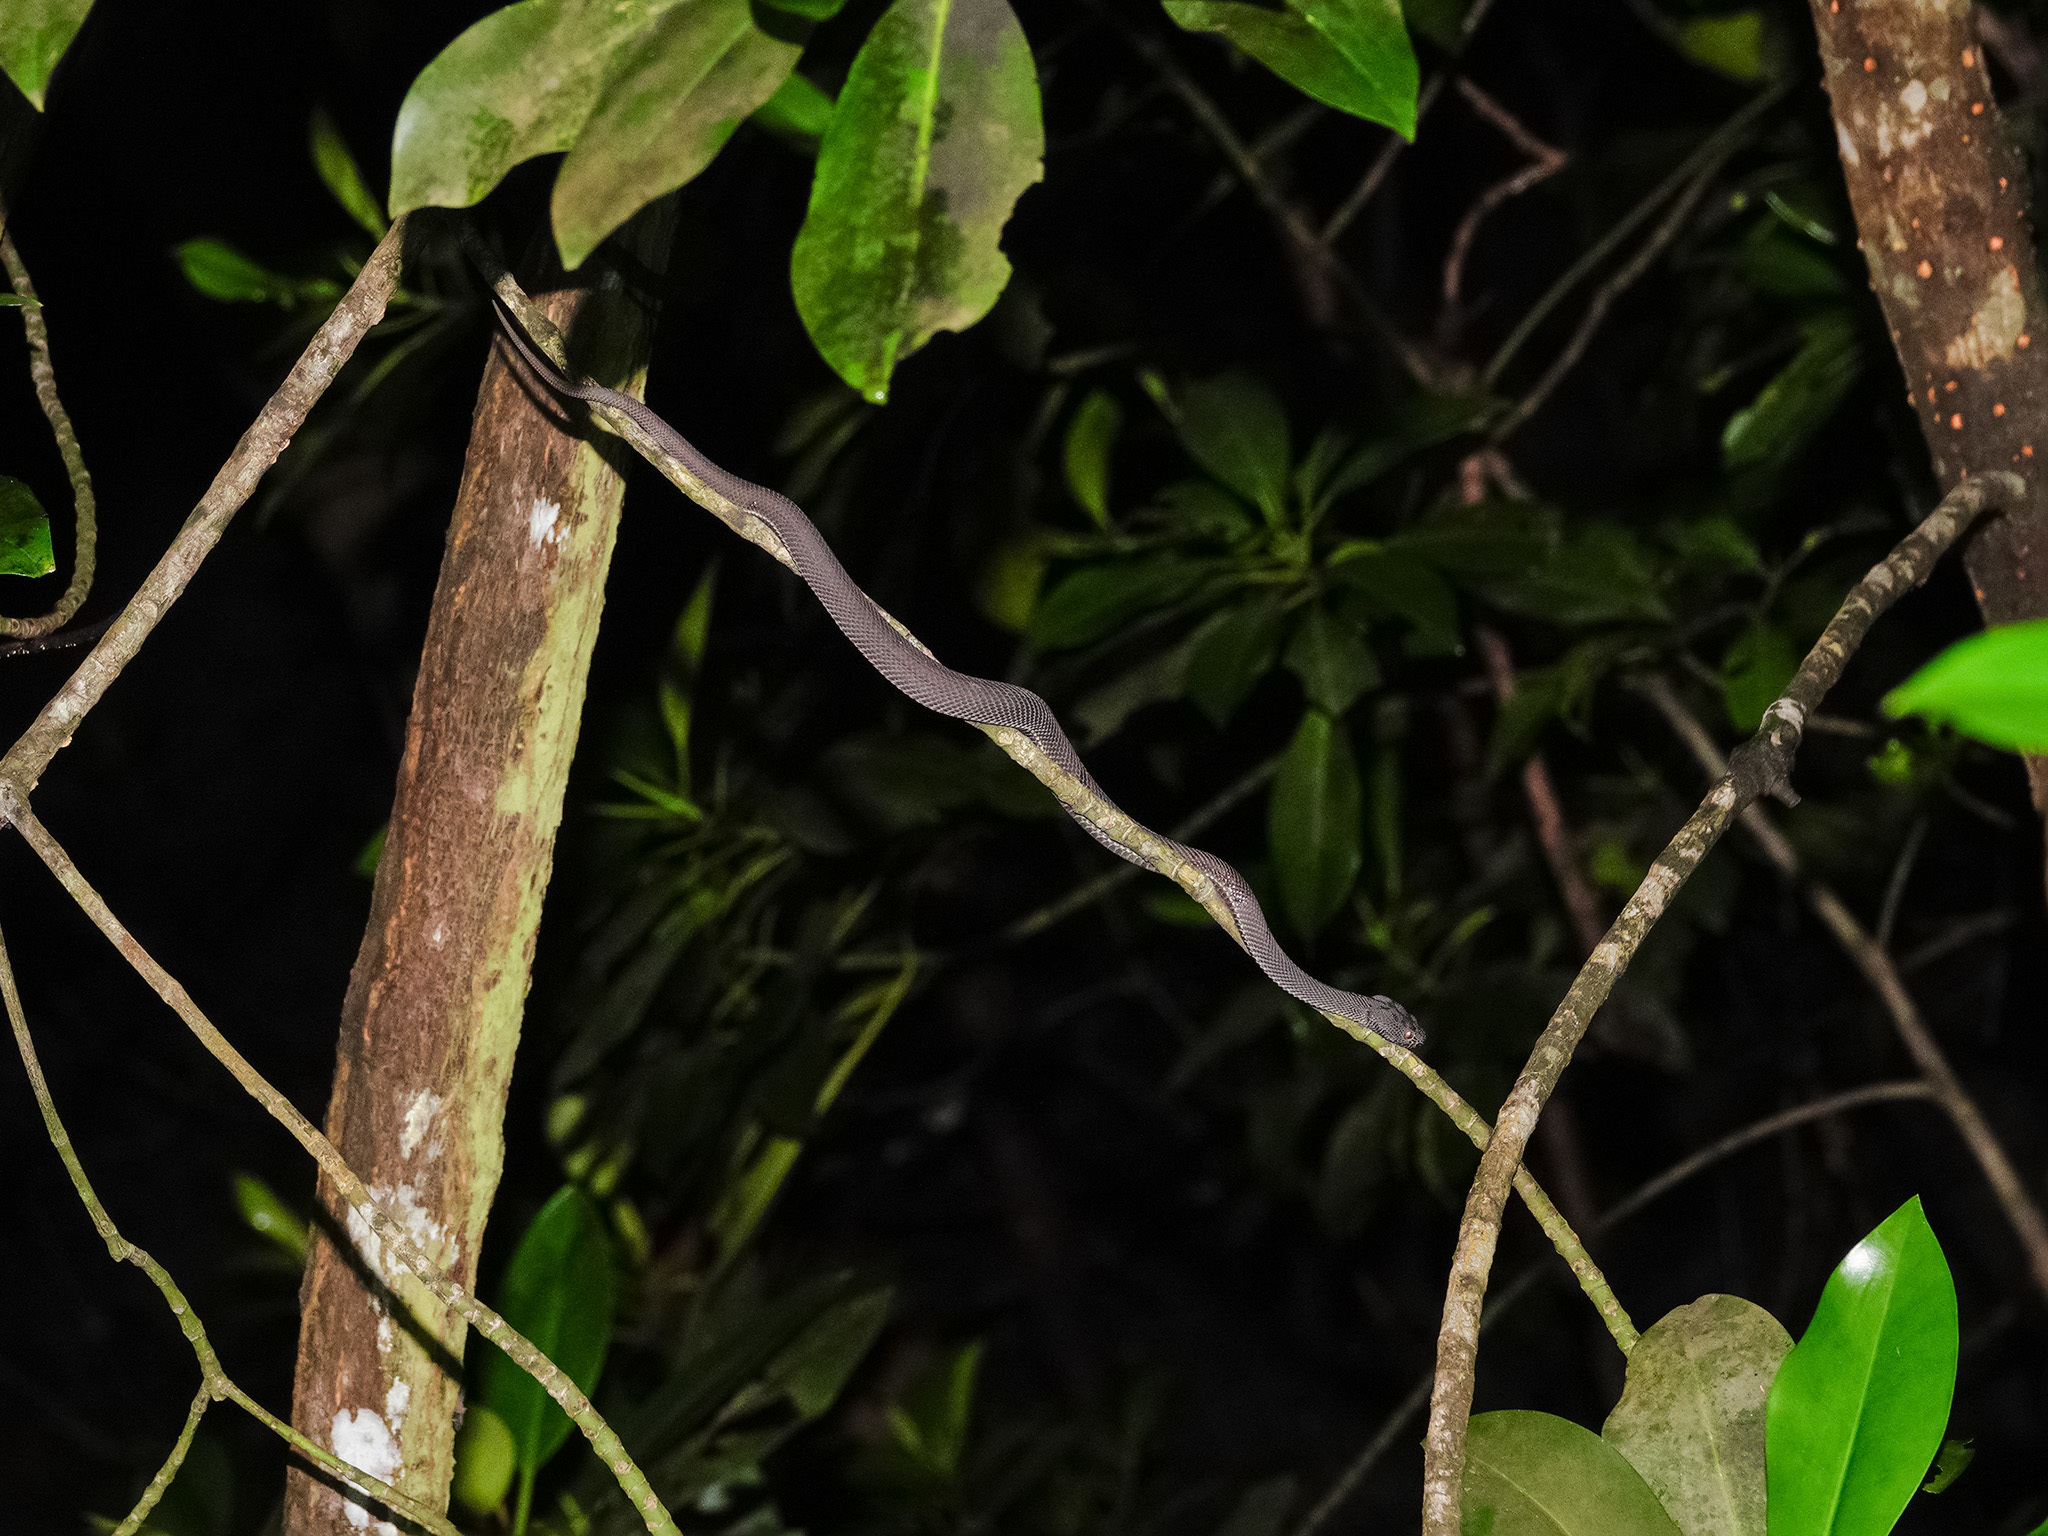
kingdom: Animalia
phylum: Chordata
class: Squamata
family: Viperidae
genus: Trimeresurus
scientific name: Trimeresurus purpureomaculatus
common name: Shore pit viper
